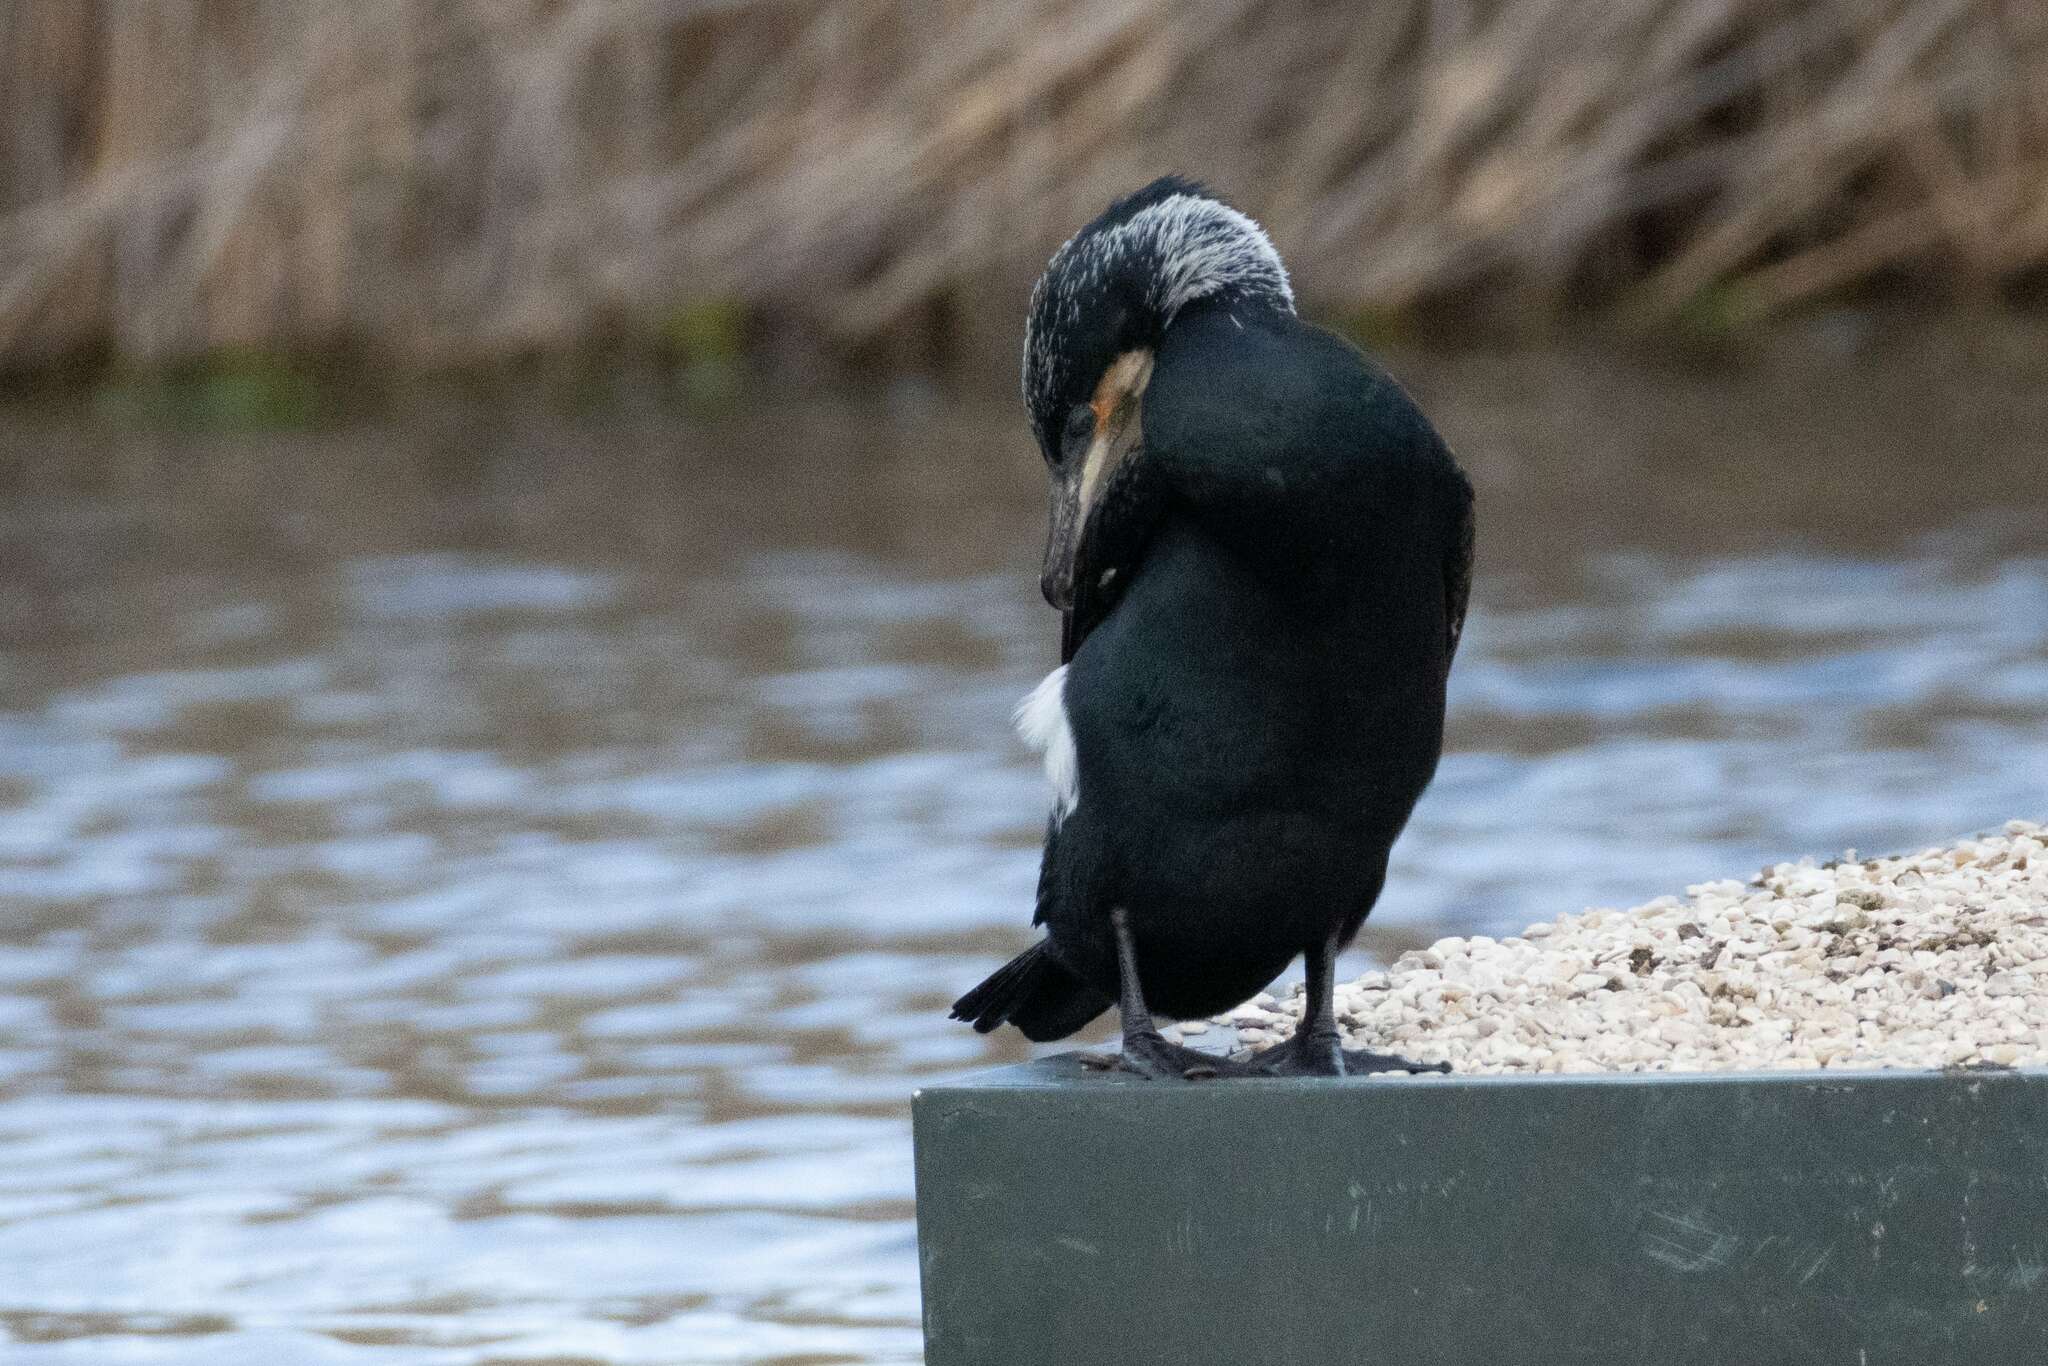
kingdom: Animalia
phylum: Chordata
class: Aves
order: Suliformes
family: Phalacrocoracidae
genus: Phalacrocorax
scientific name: Phalacrocorax carbo
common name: Great cormorant
